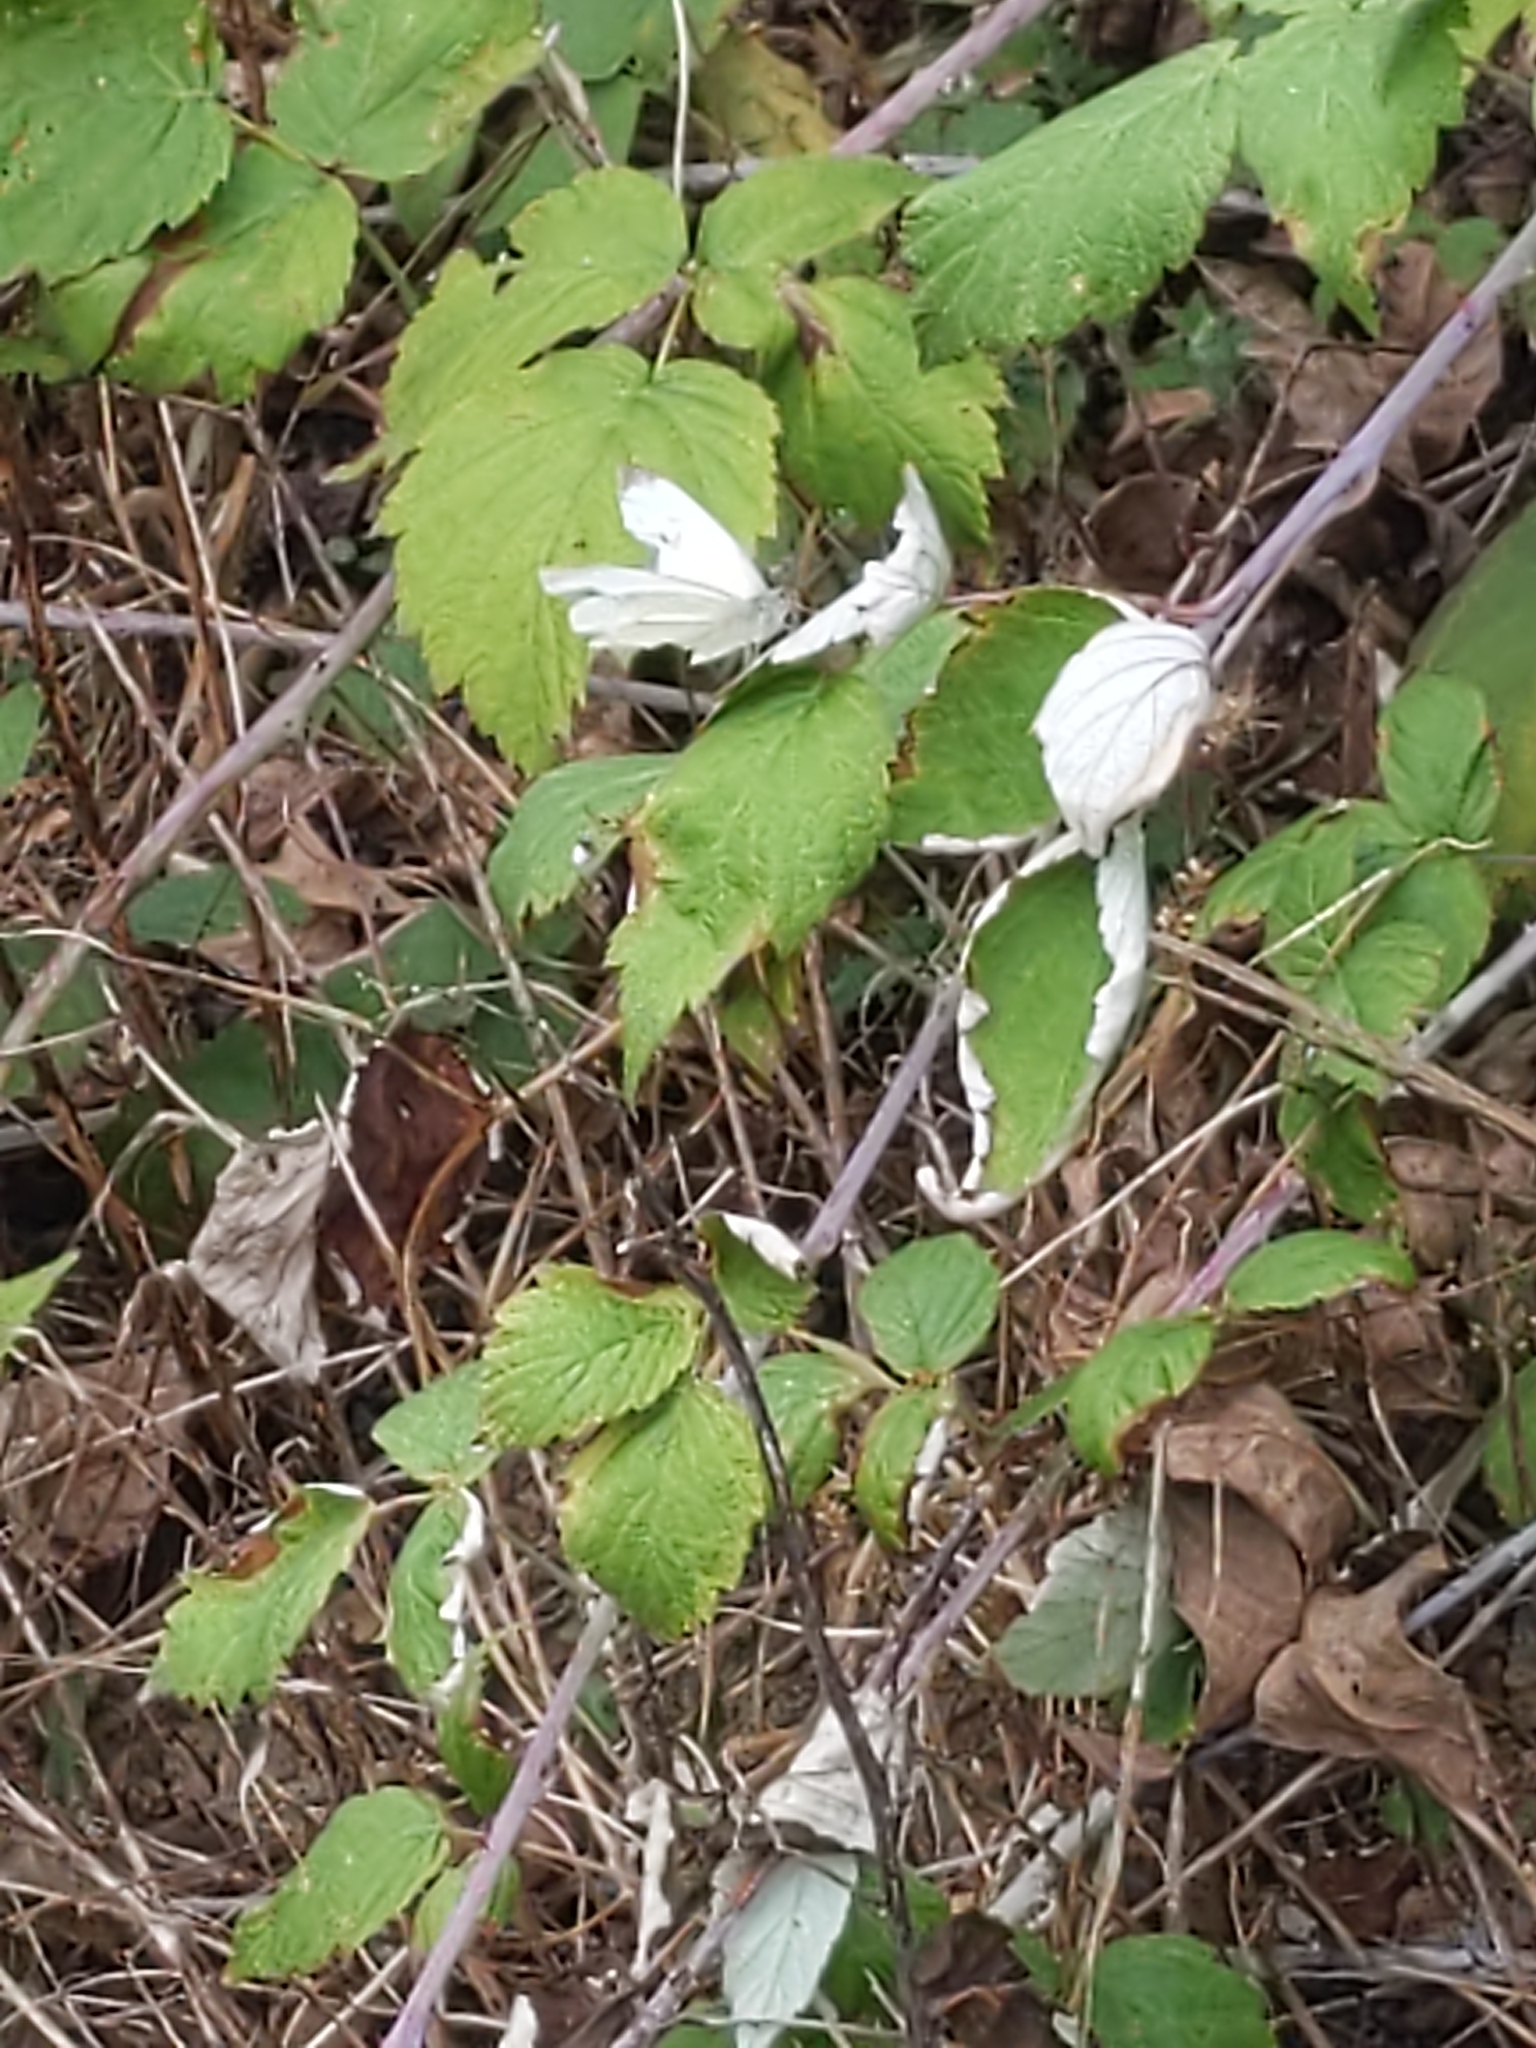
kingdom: Animalia
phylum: Arthropoda
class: Insecta
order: Lepidoptera
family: Pieridae
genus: Pieris
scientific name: Pieris rapae
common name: Small white
